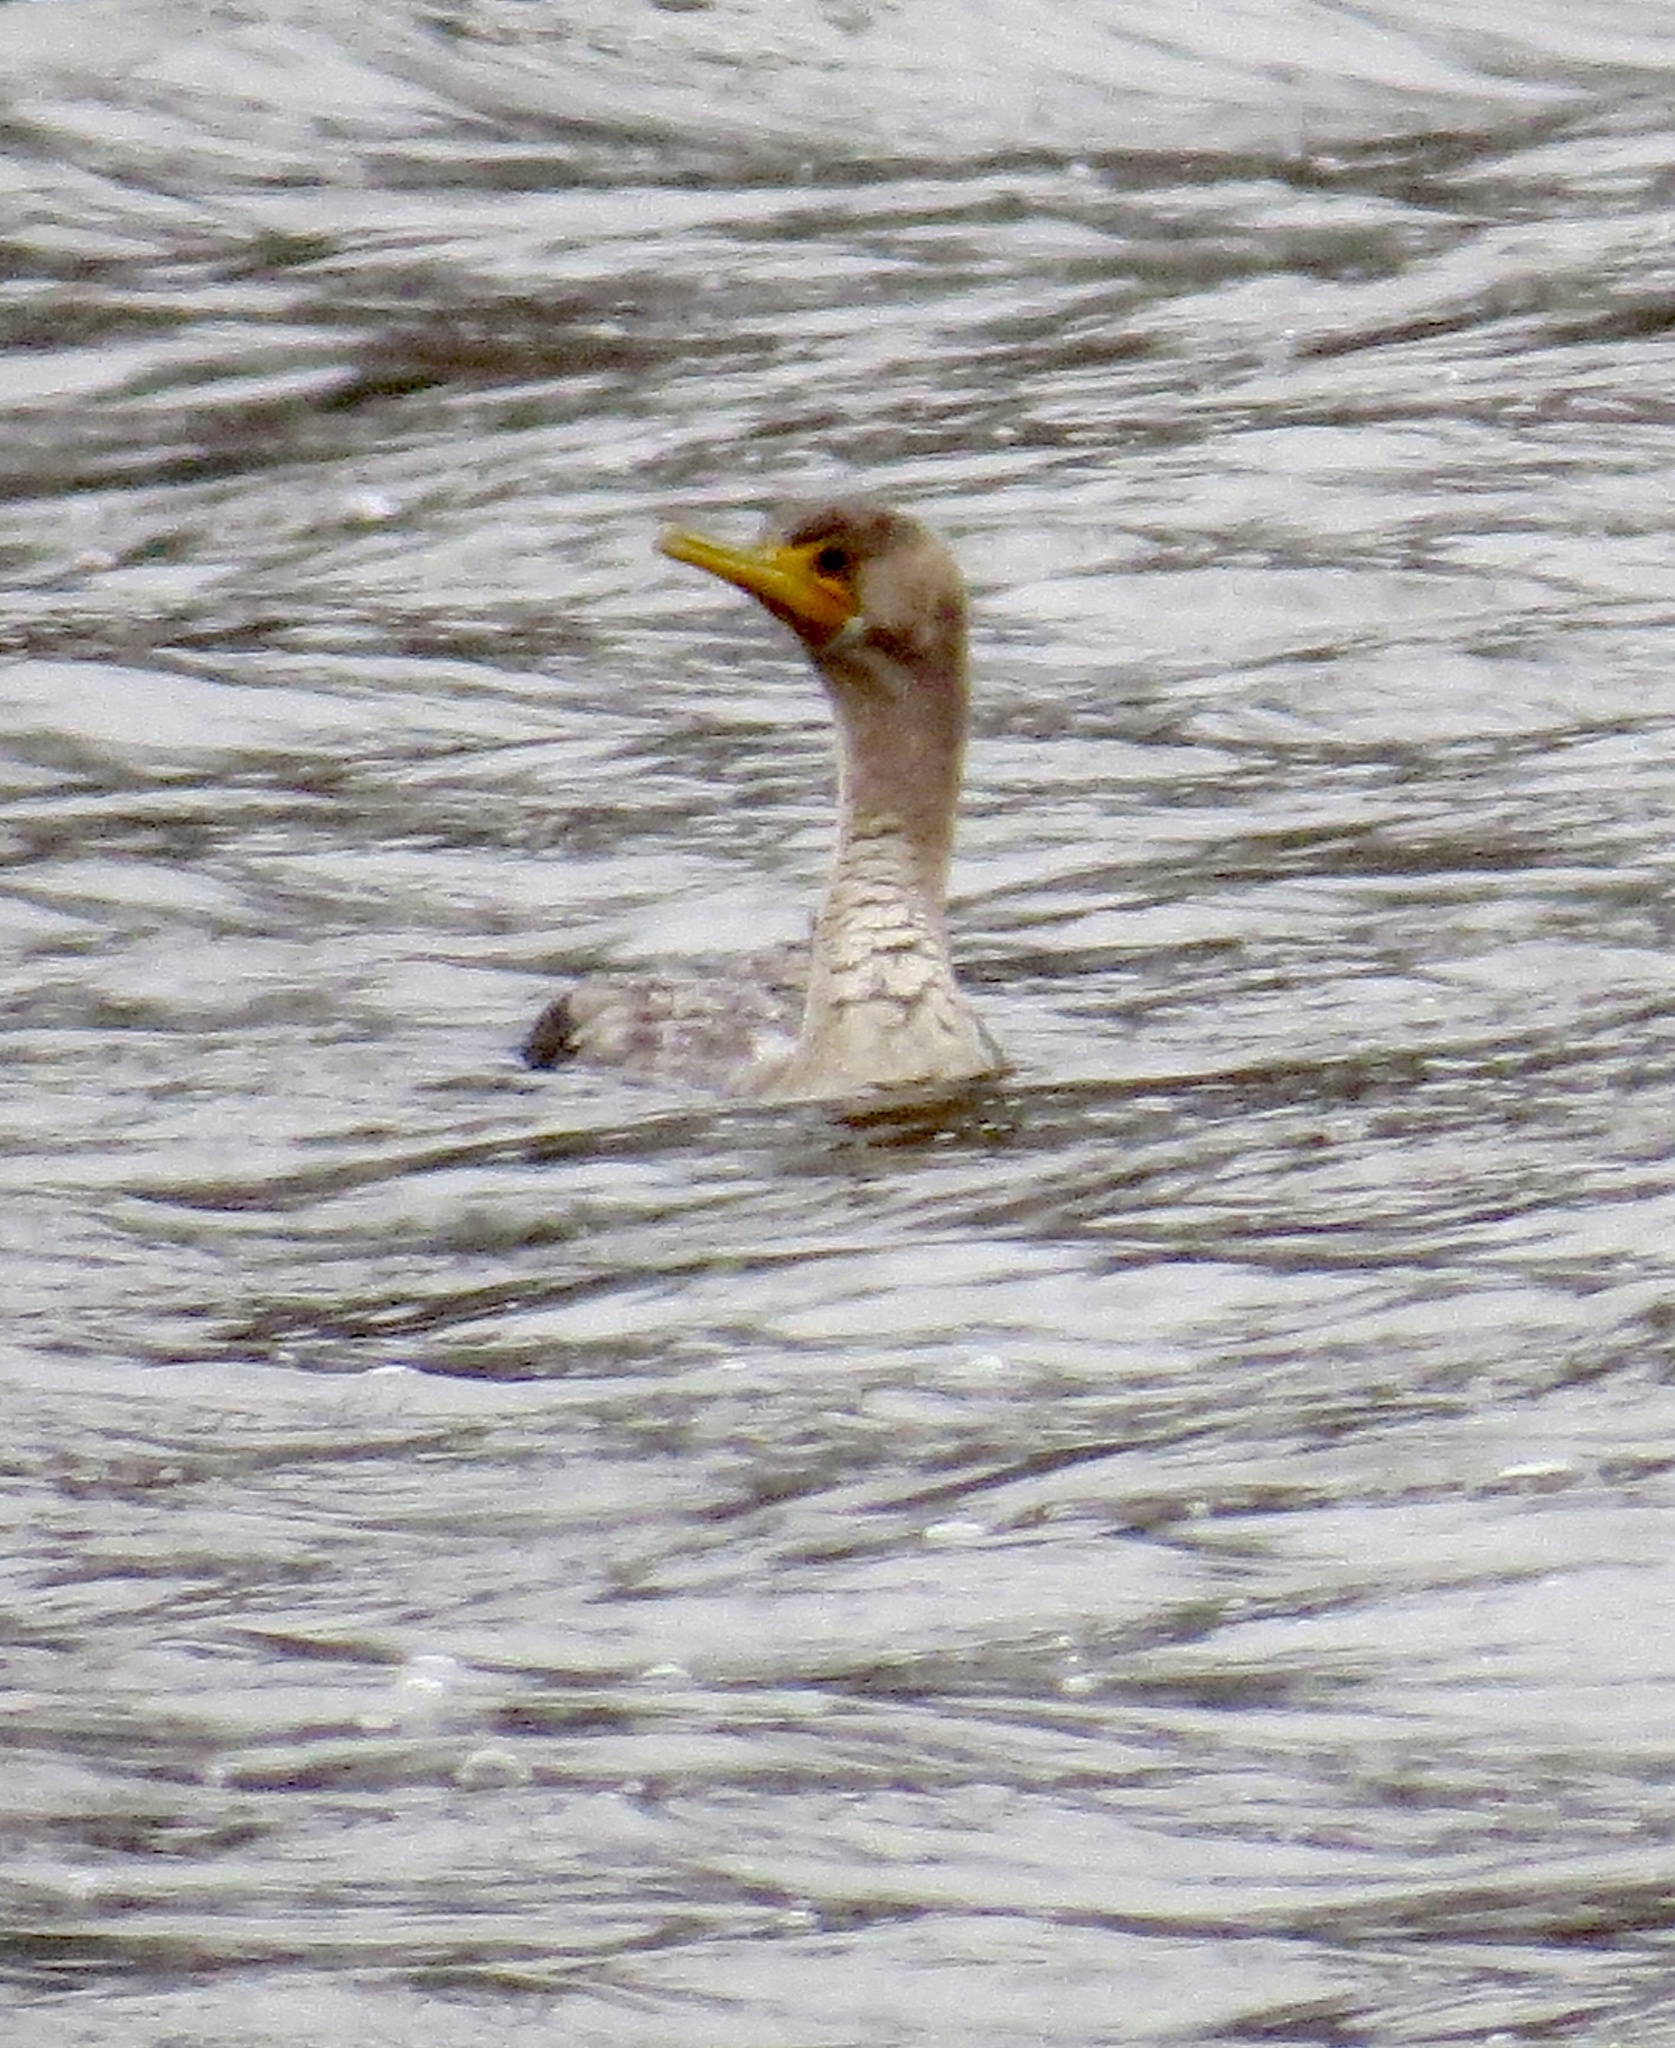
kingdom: Animalia
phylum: Chordata
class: Aves
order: Suliformes
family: Phalacrocoracidae
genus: Phalacrocorax
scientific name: Phalacrocorax auritus
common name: Double-crested cormorant
